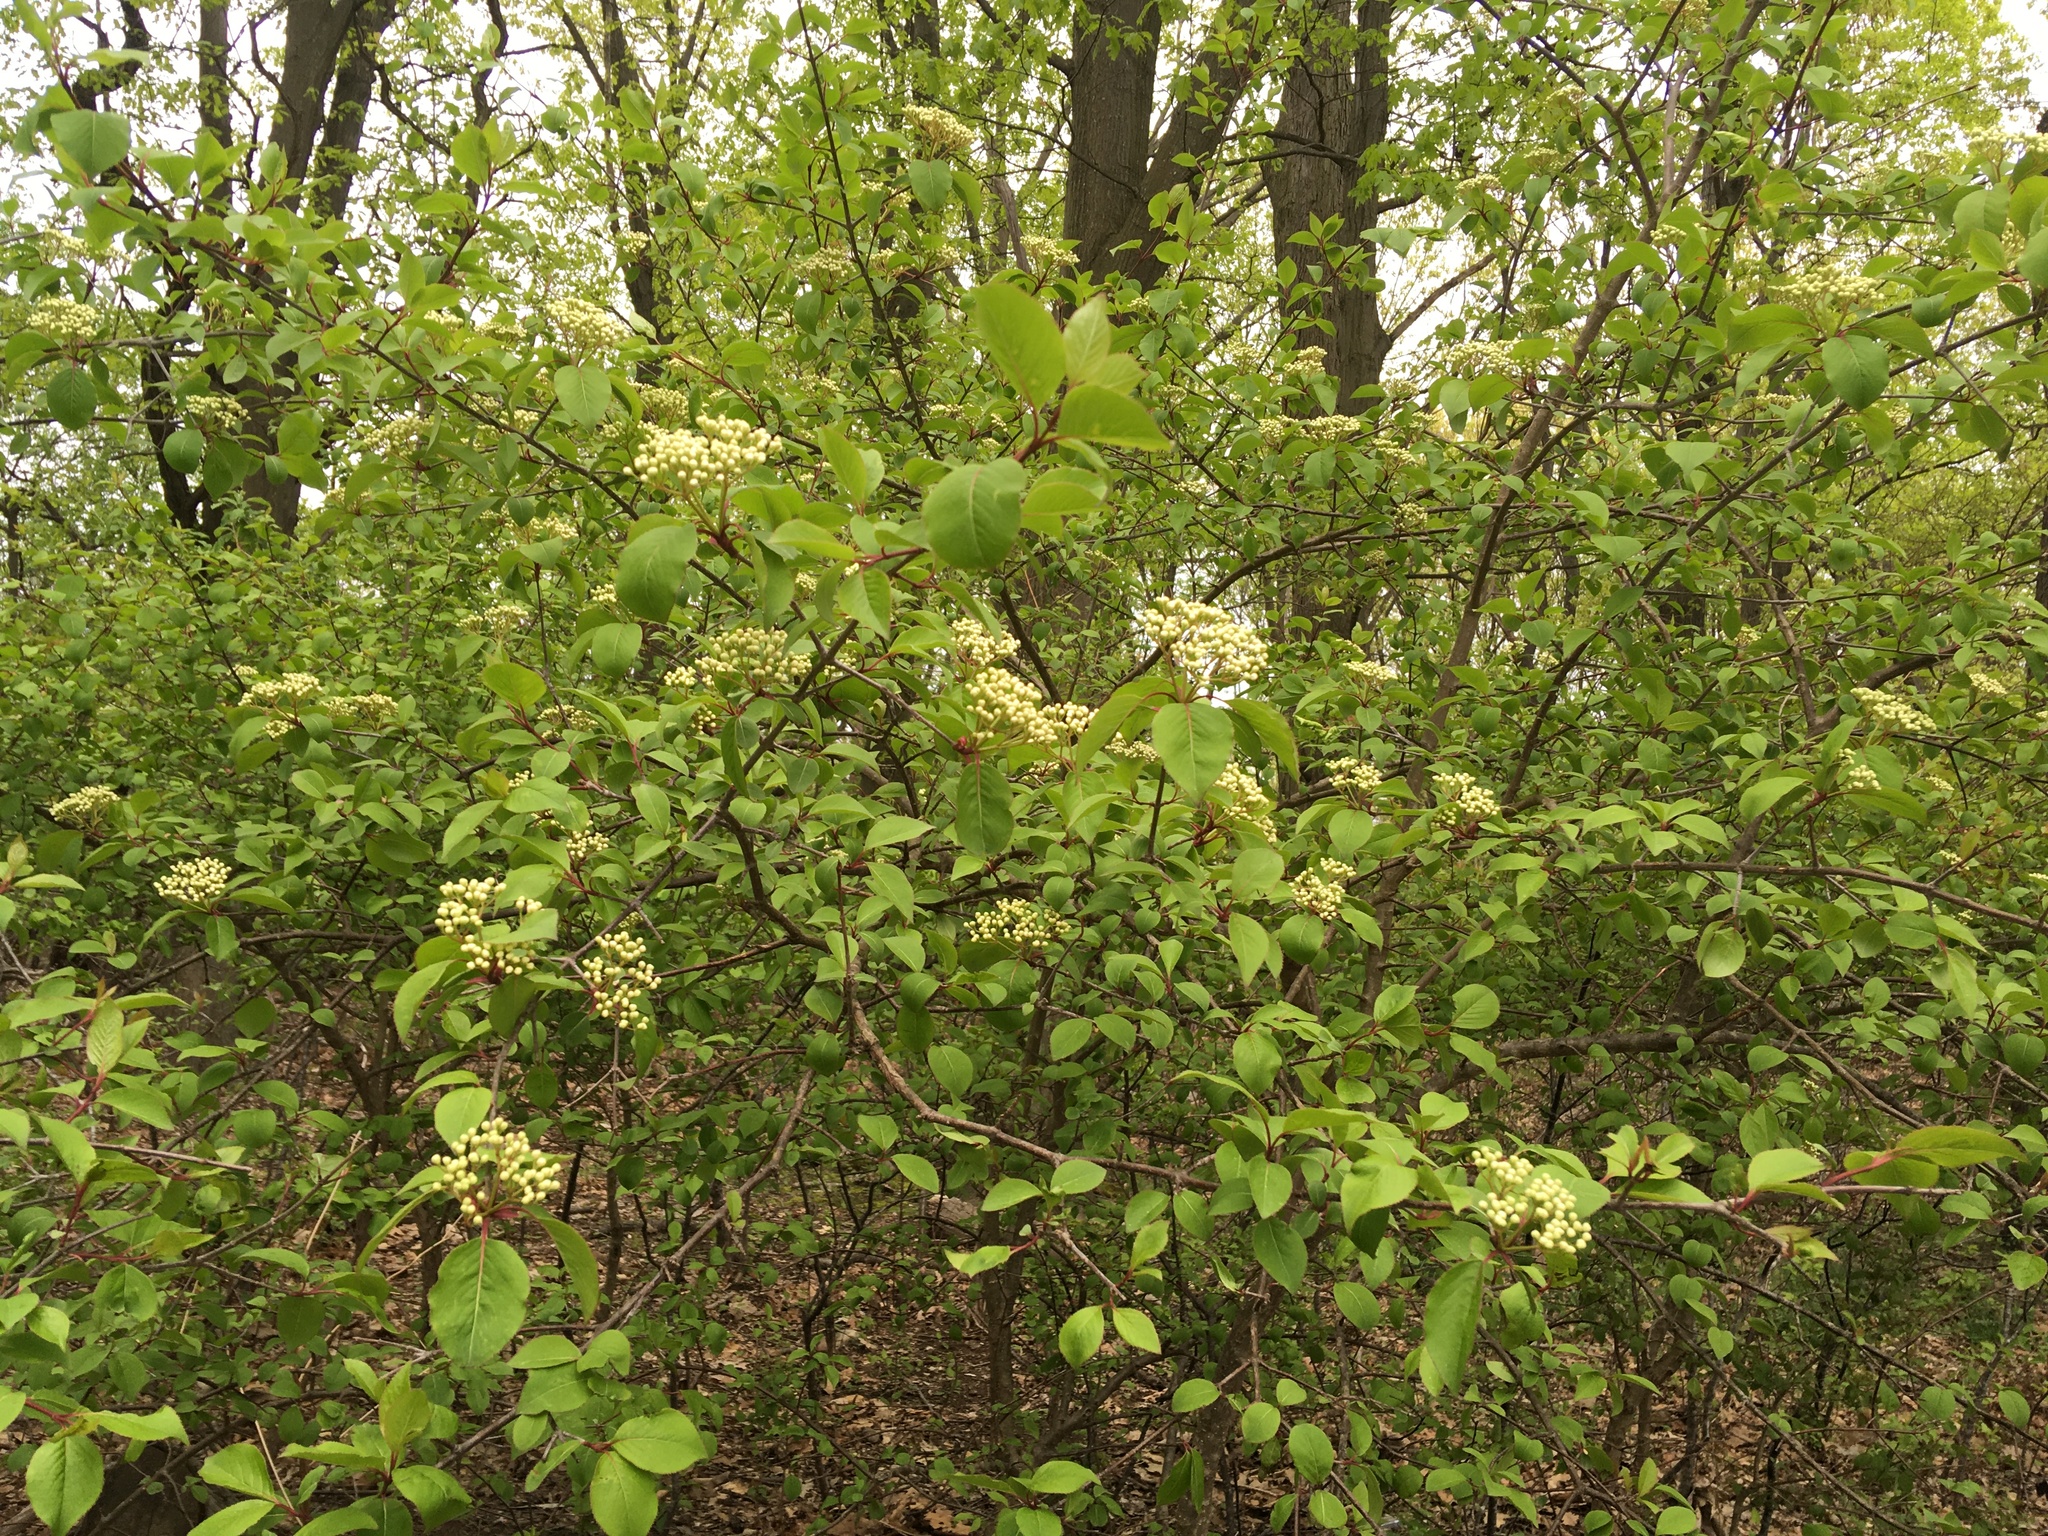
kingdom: Plantae
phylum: Tracheophyta
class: Magnoliopsida
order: Dipsacales
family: Viburnaceae
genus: Viburnum
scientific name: Viburnum prunifolium
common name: Black haw
